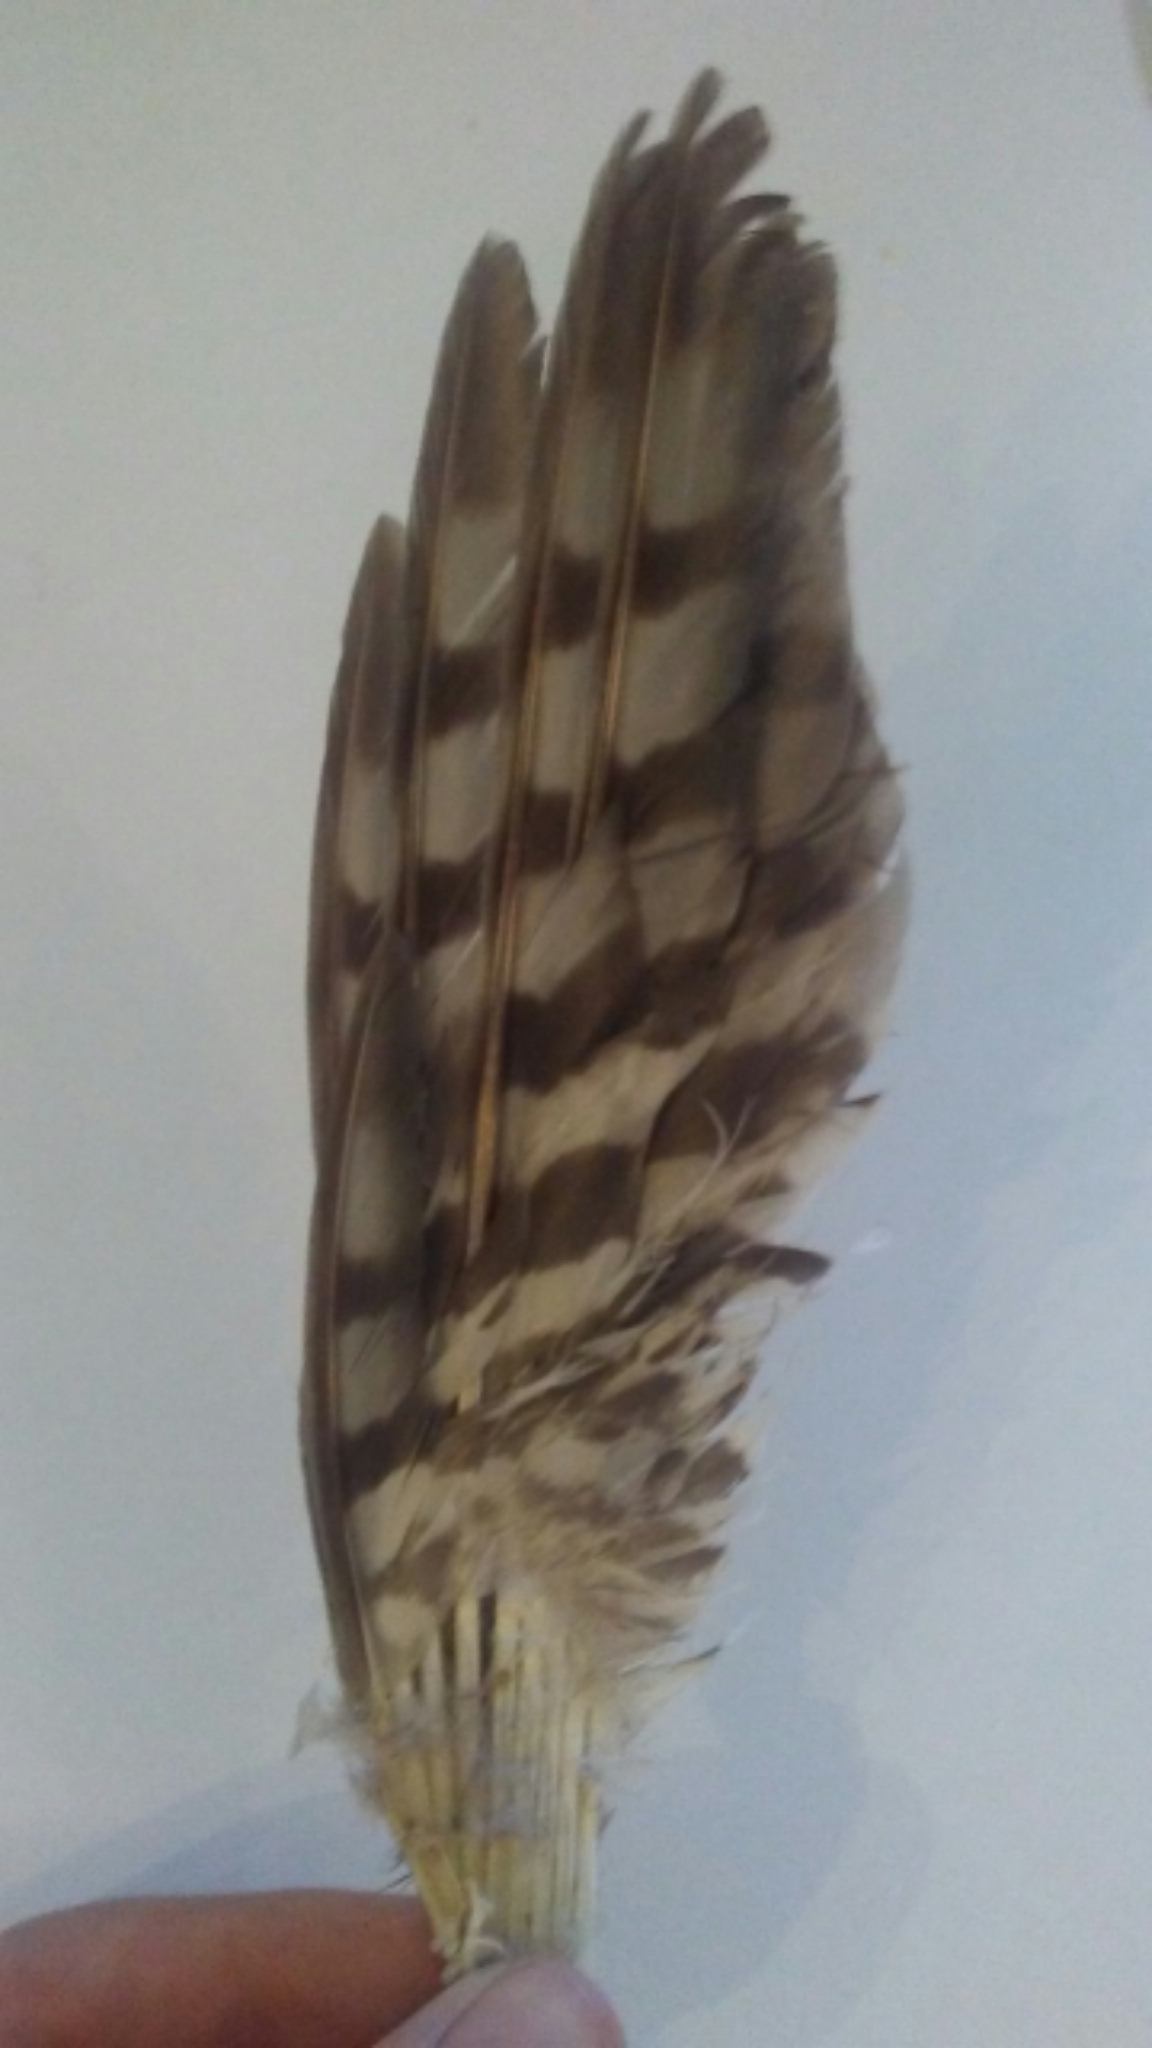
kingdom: Animalia
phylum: Chordata
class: Aves
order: Accipitriformes
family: Accipitridae
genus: Accipiter
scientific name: Accipiter striatus
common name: Sharp-shinned hawk
